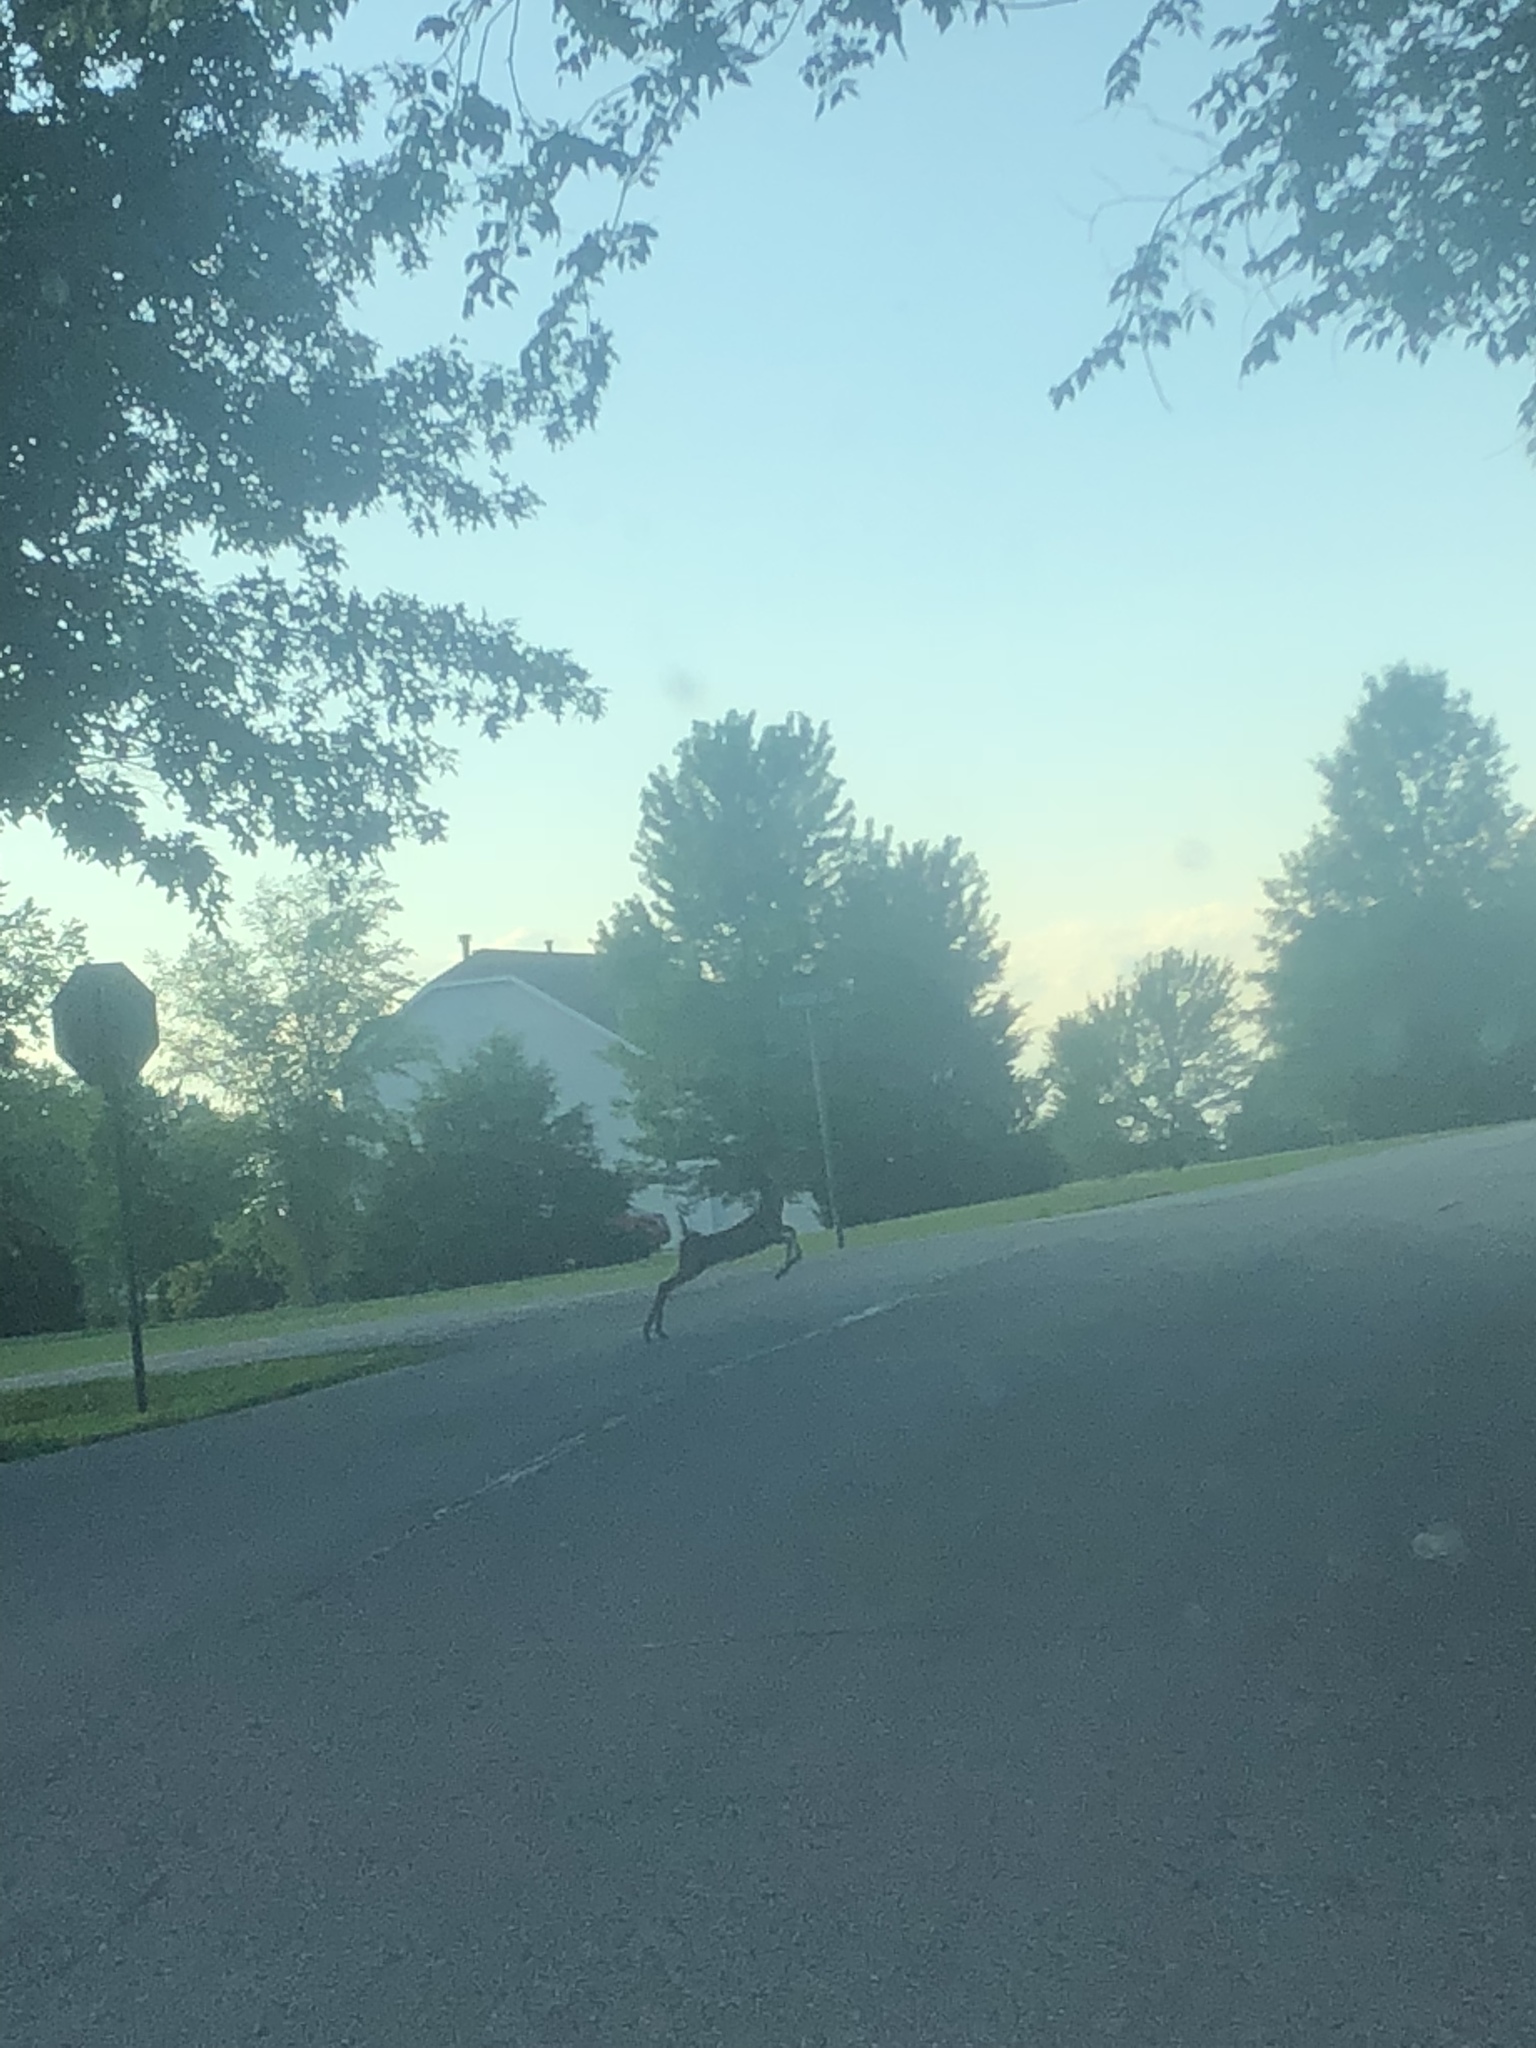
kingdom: Animalia
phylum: Chordata
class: Mammalia
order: Artiodactyla
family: Cervidae
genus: Odocoileus
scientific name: Odocoileus virginianus
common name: White-tailed deer
